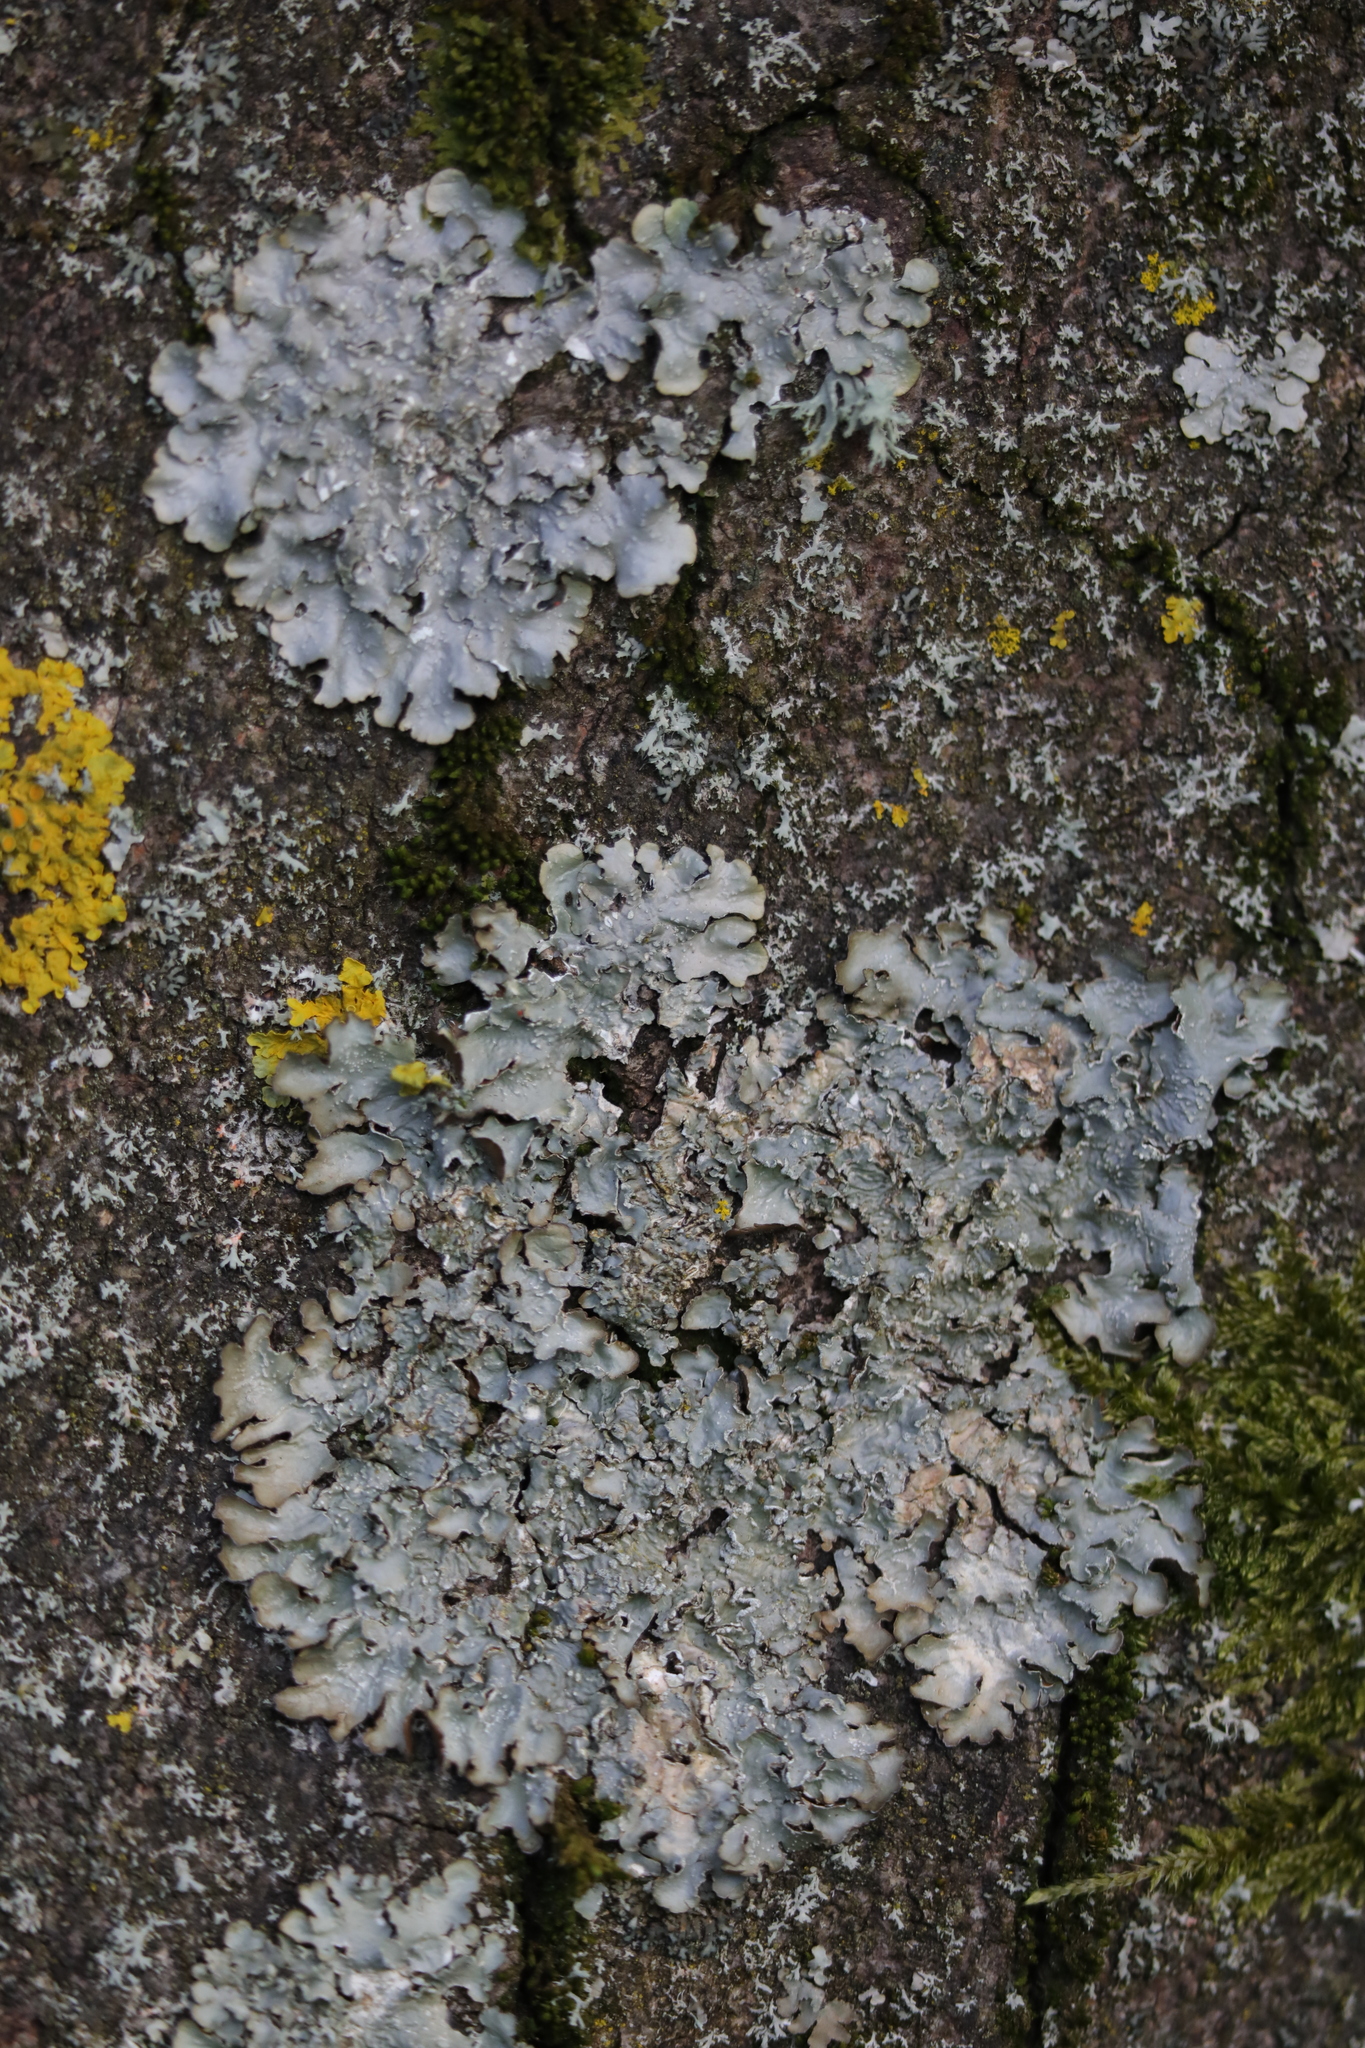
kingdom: Fungi
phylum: Ascomycota
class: Lecanoromycetes
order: Lecanorales
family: Parmeliaceae
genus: Punctelia
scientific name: Punctelia
